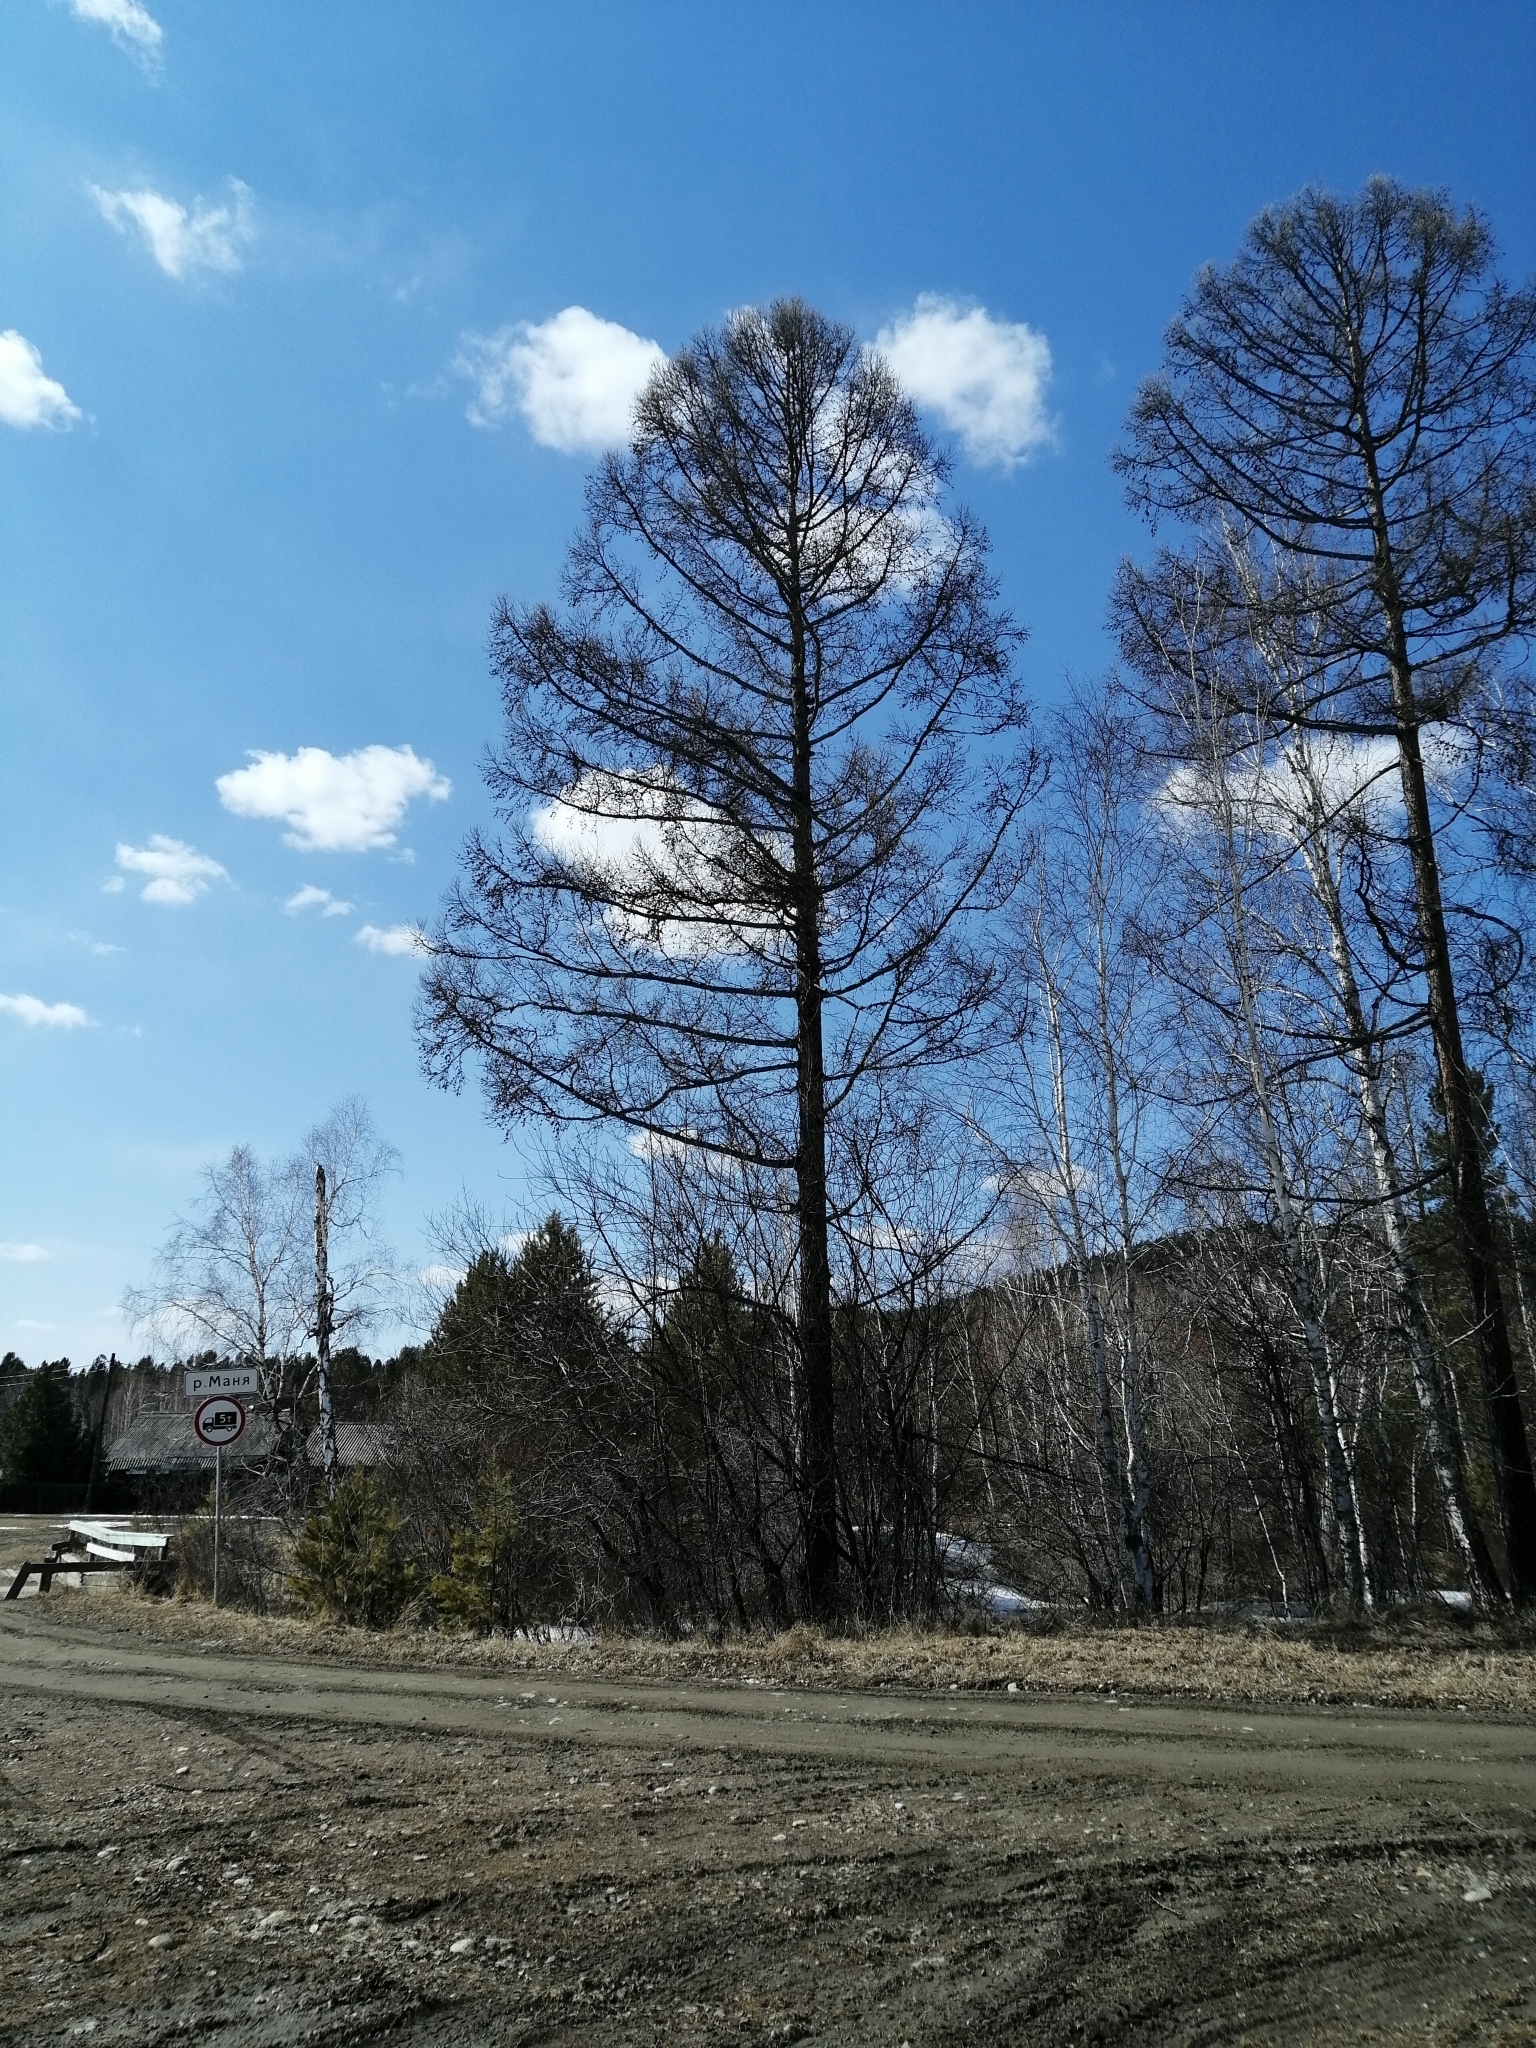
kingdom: Plantae
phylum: Tracheophyta
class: Pinopsida
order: Pinales
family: Pinaceae
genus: Larix
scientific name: Larix sibirica
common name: Siberian larch
